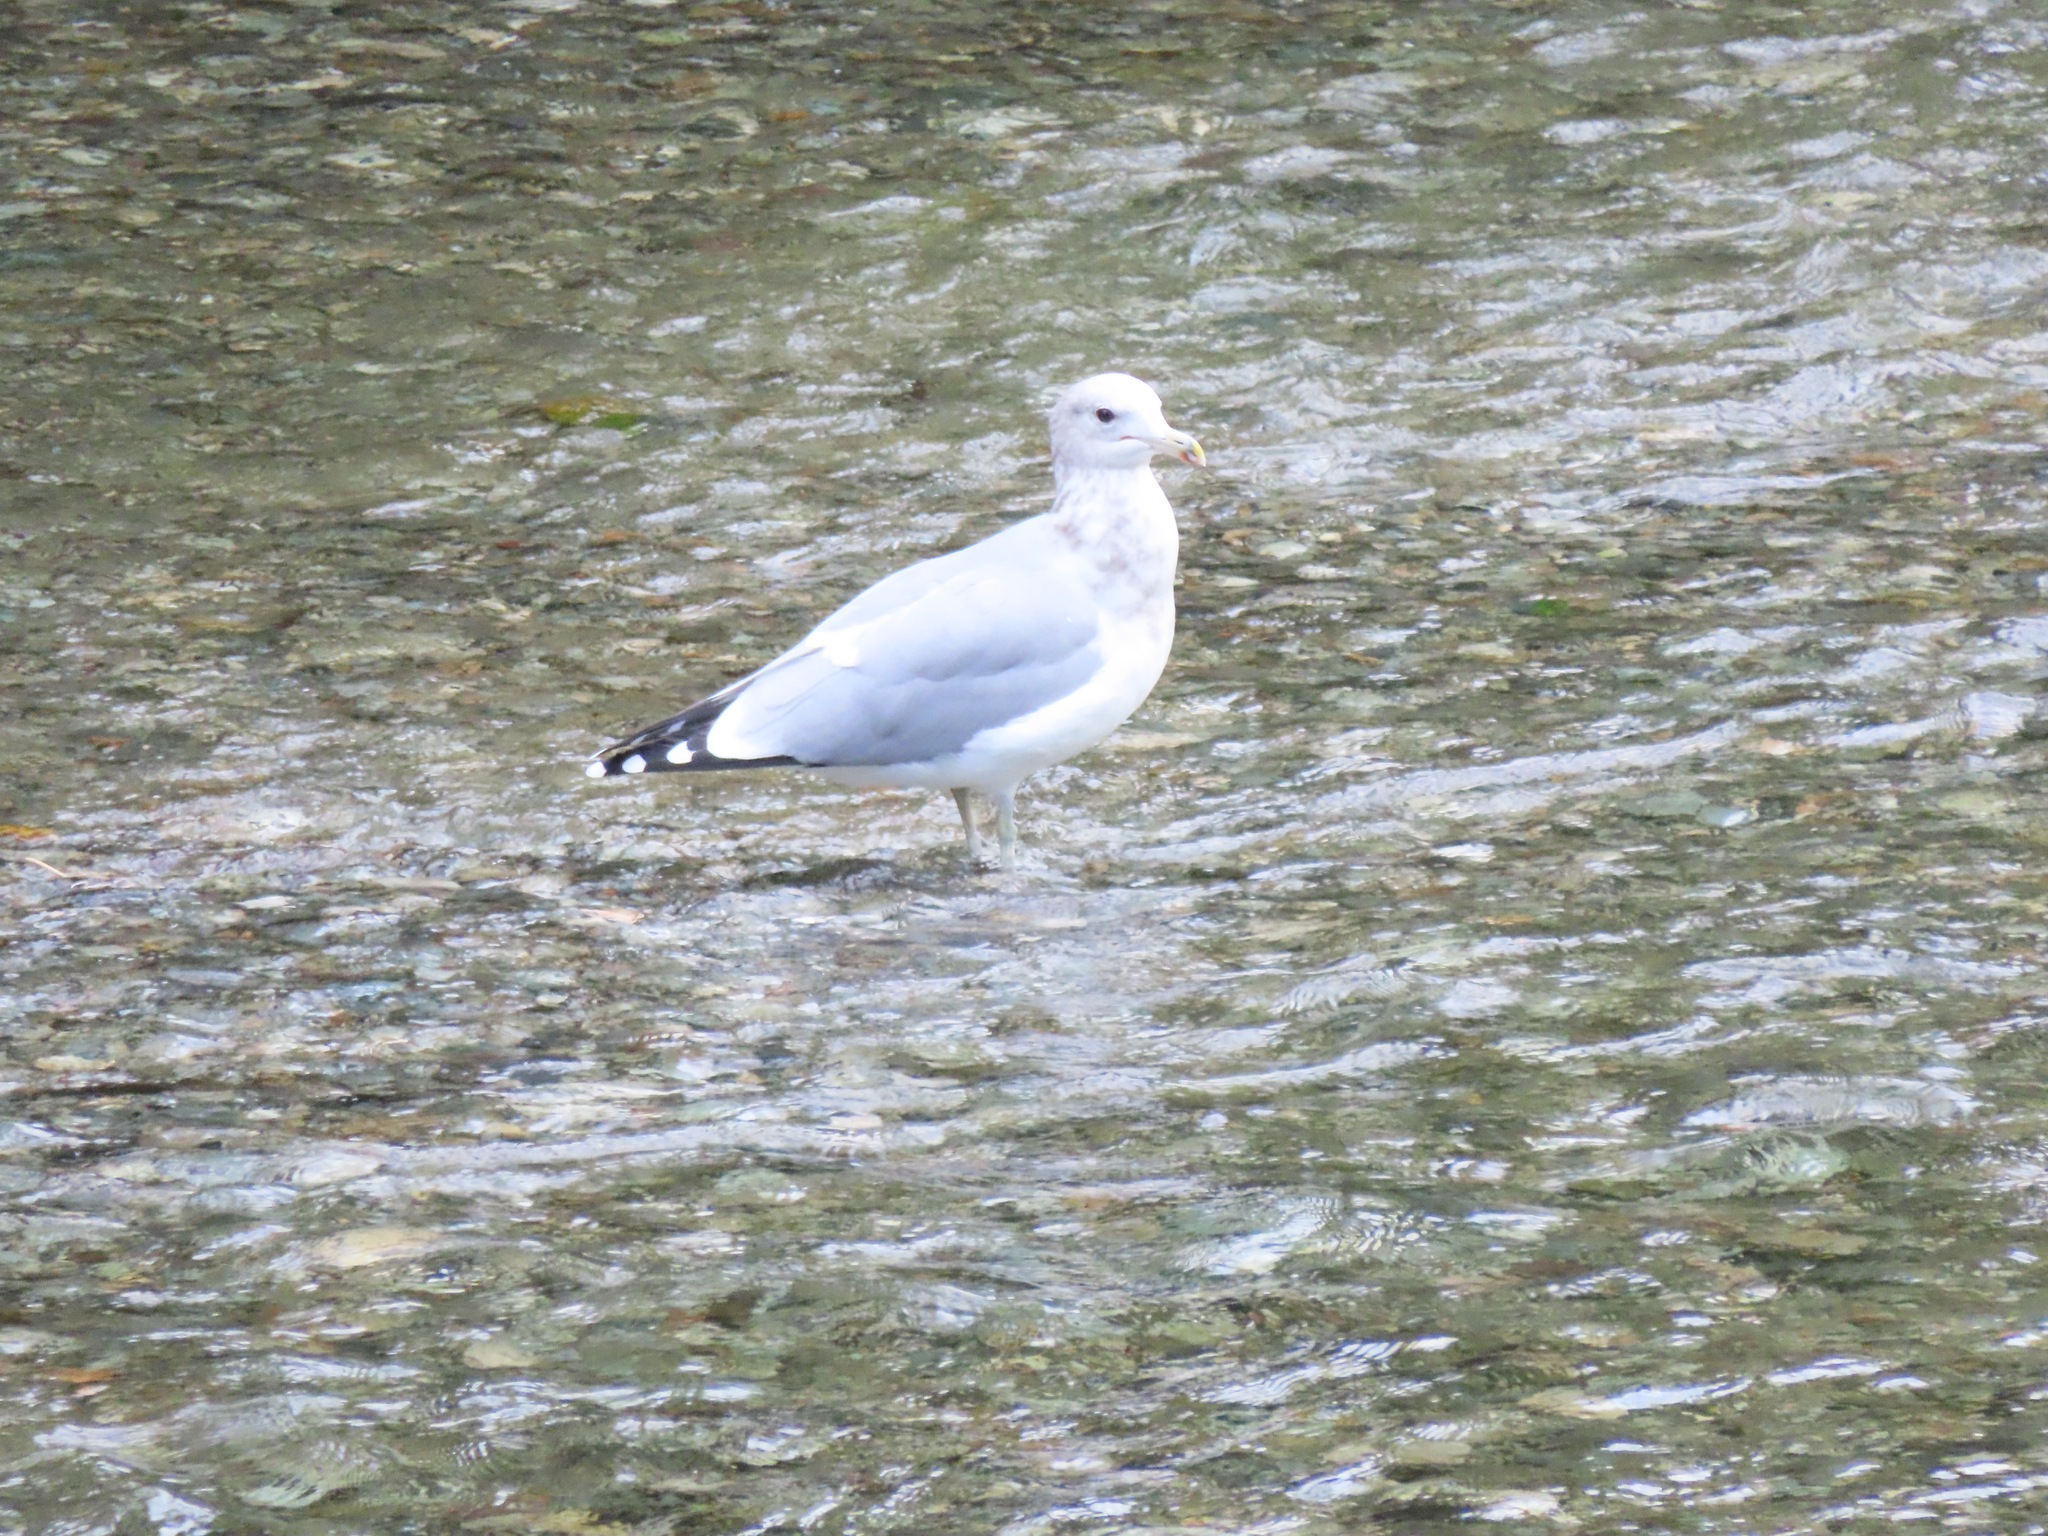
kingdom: Animalia
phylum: Chordata
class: Aves
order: Charadriiformes
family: Laridae
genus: Larus
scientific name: Larus californicus
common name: California gull
